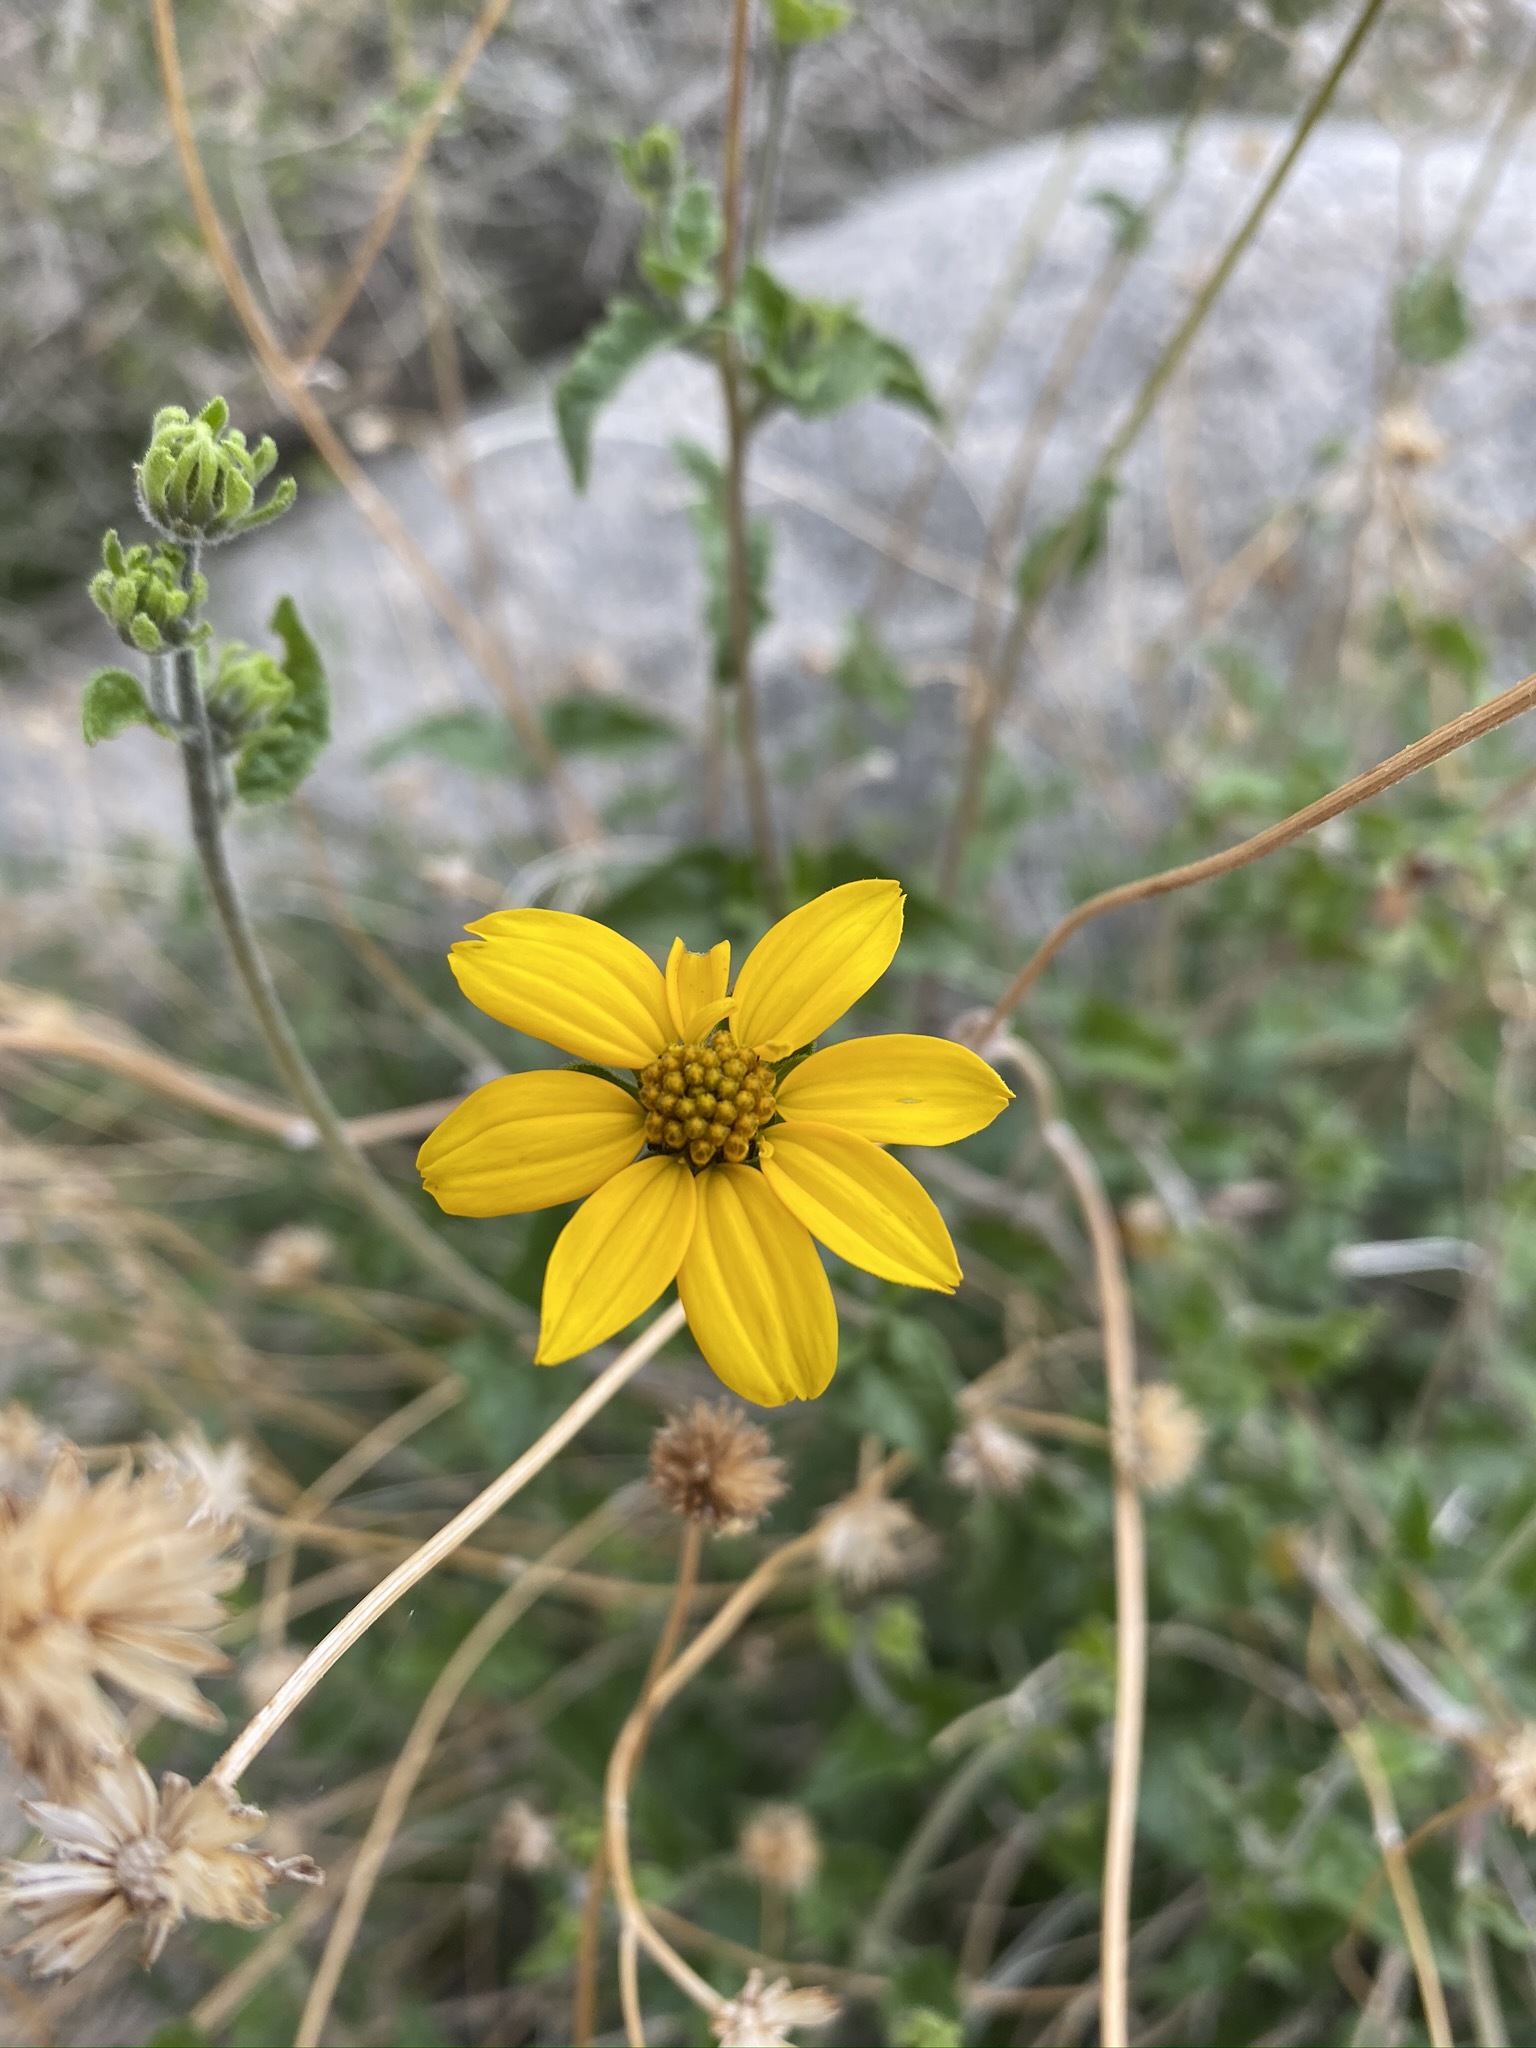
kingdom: Plantae
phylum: Tracheophyta
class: Magnoliopsida
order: Asterales
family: Asteraceae
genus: Bahiopsis
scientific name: Bahiopsis parishii
